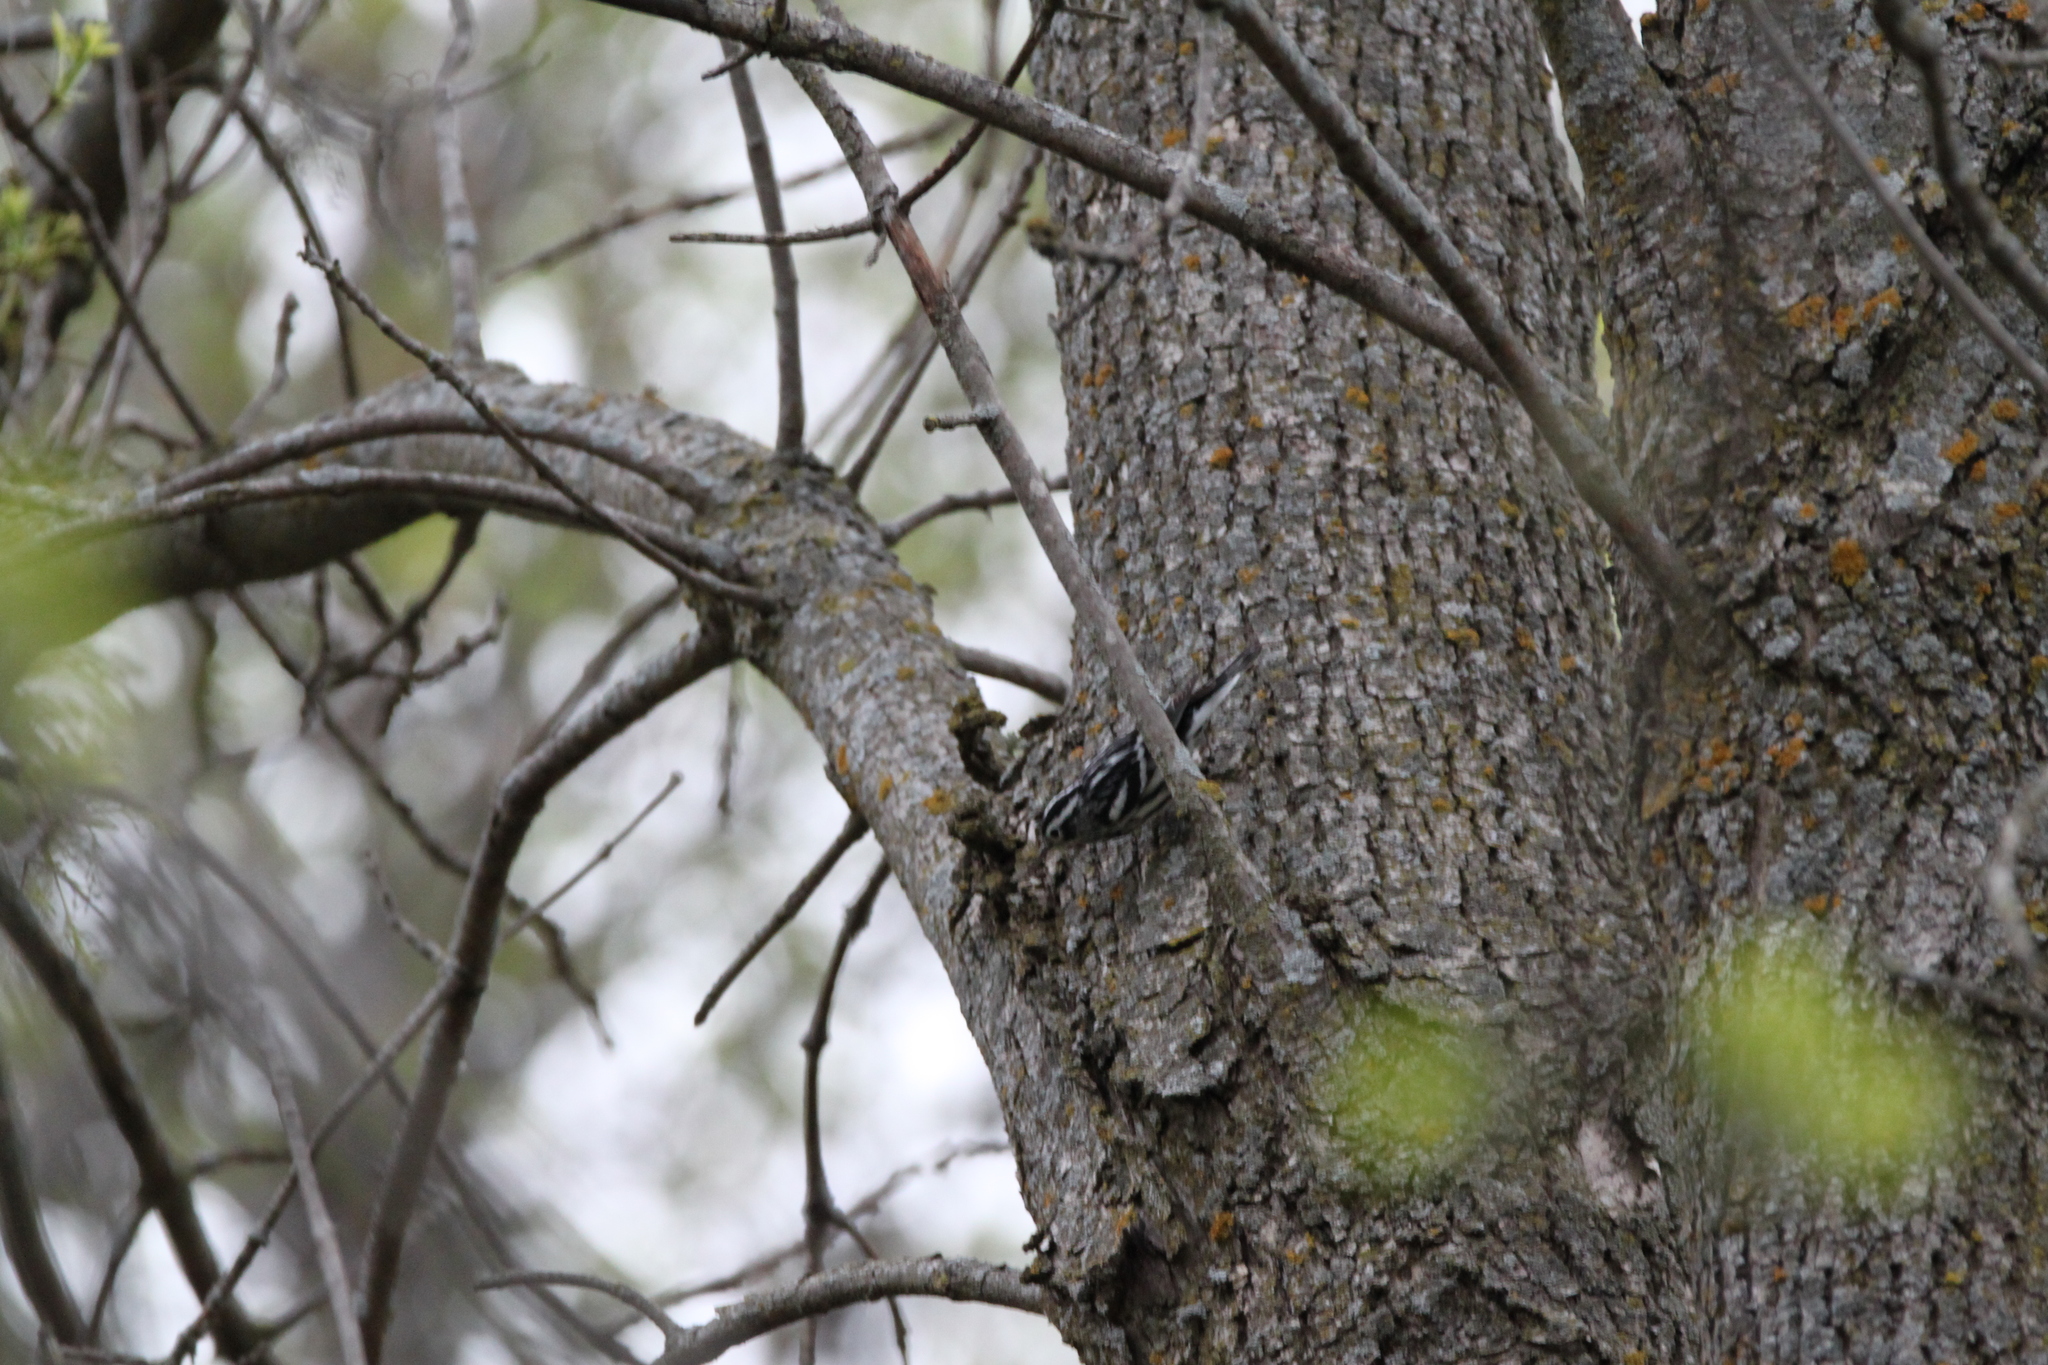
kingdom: Animalia
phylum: Chordata
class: Aves
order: Passeriformes
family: Parulidae
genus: Mniotilta
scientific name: Mniotilta varia
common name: Black-and-white warbler
